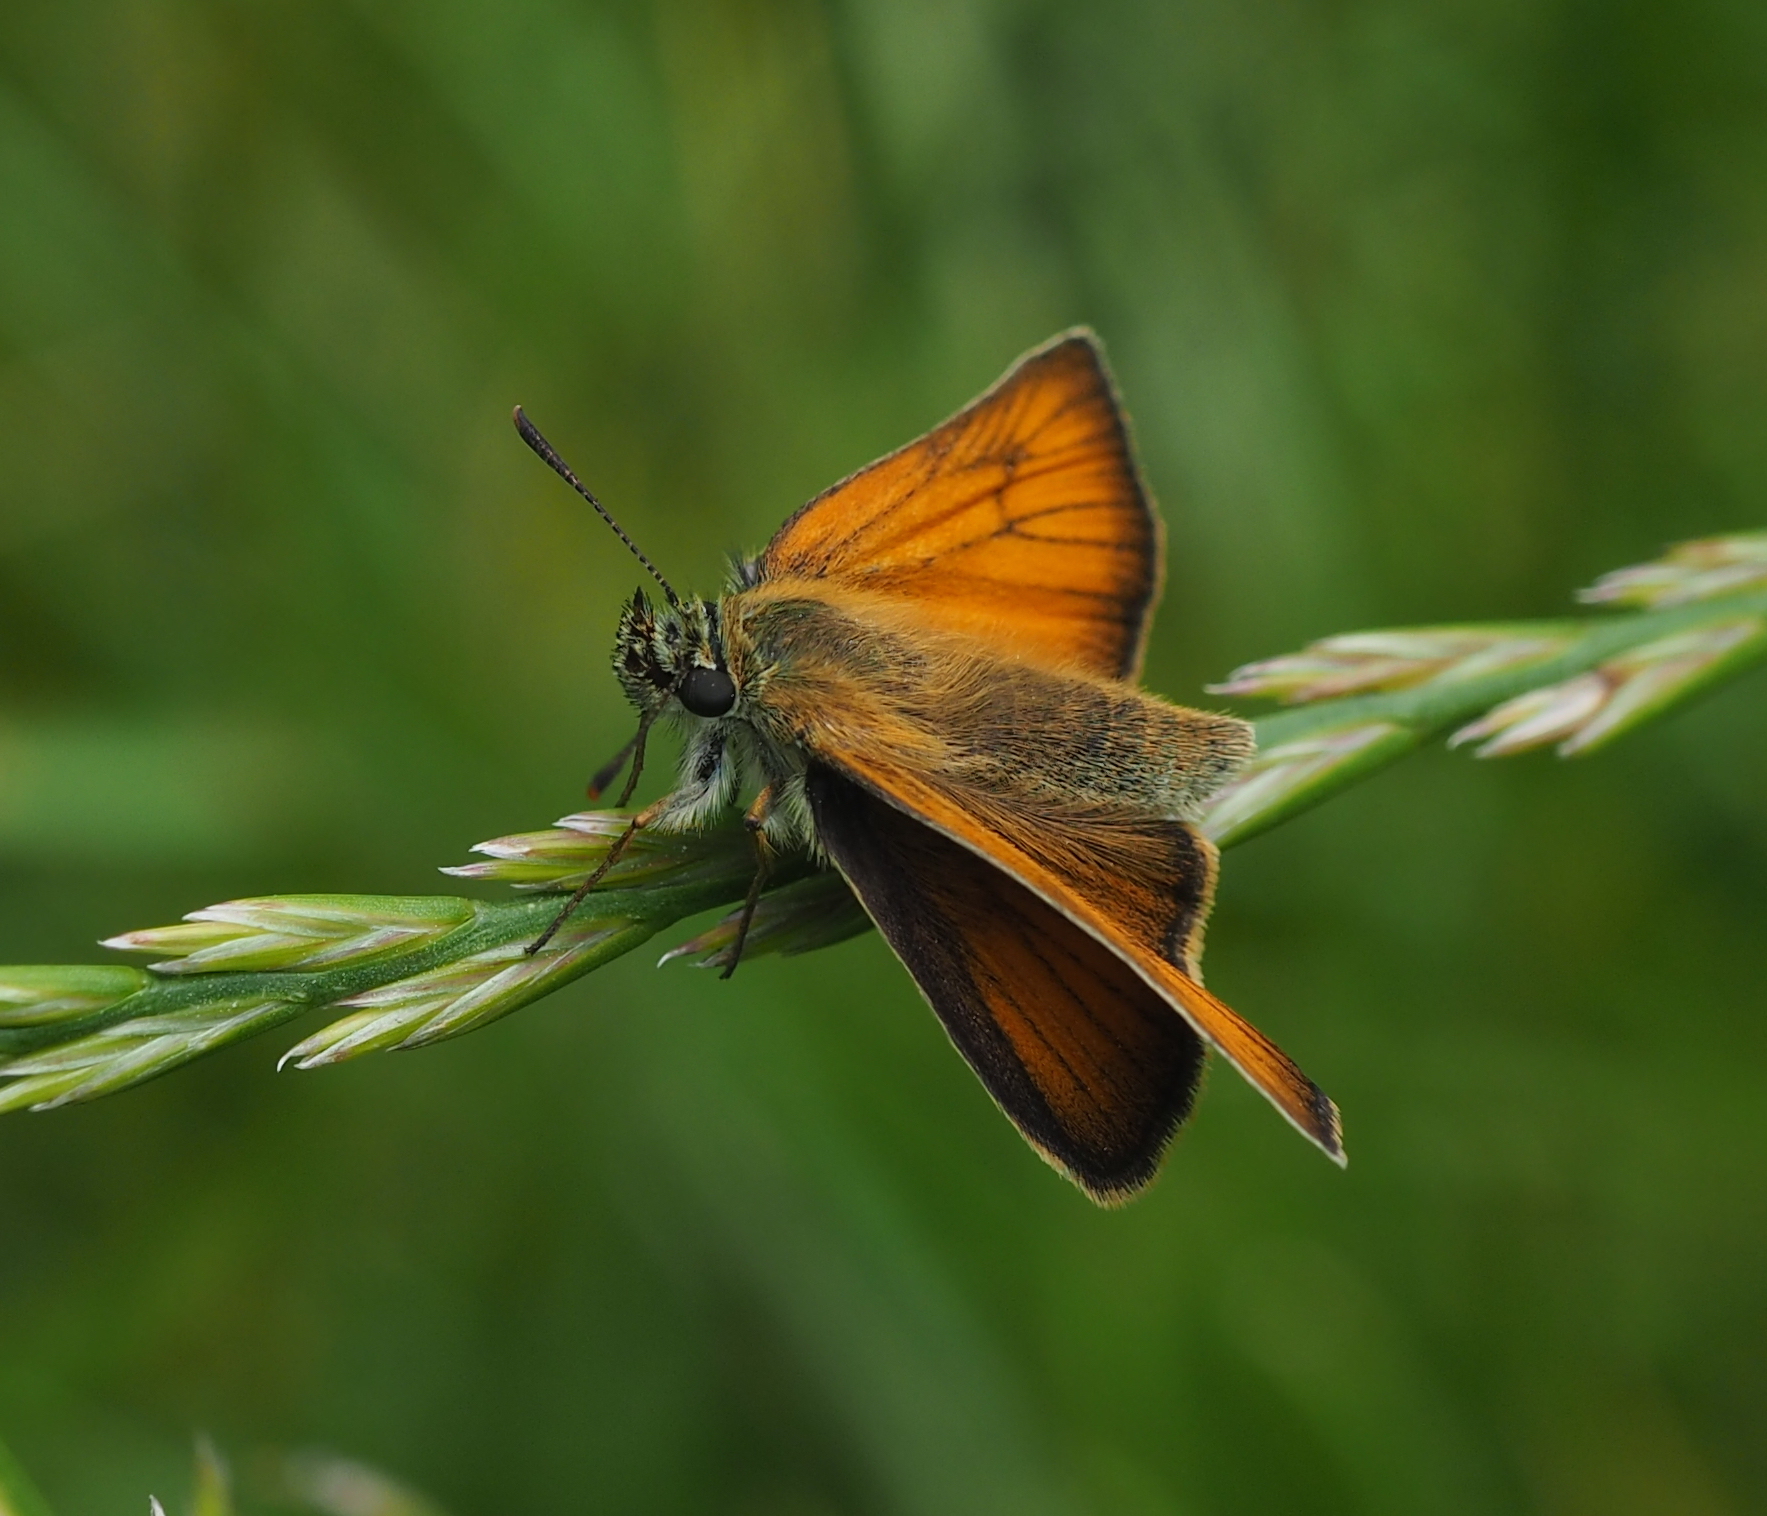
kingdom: Animalia
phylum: Arthropoda
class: Insecta
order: Lepidoptera
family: Hesperiidae
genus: Thymelicus
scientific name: Thymelicus sylvestris
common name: Small skipper
